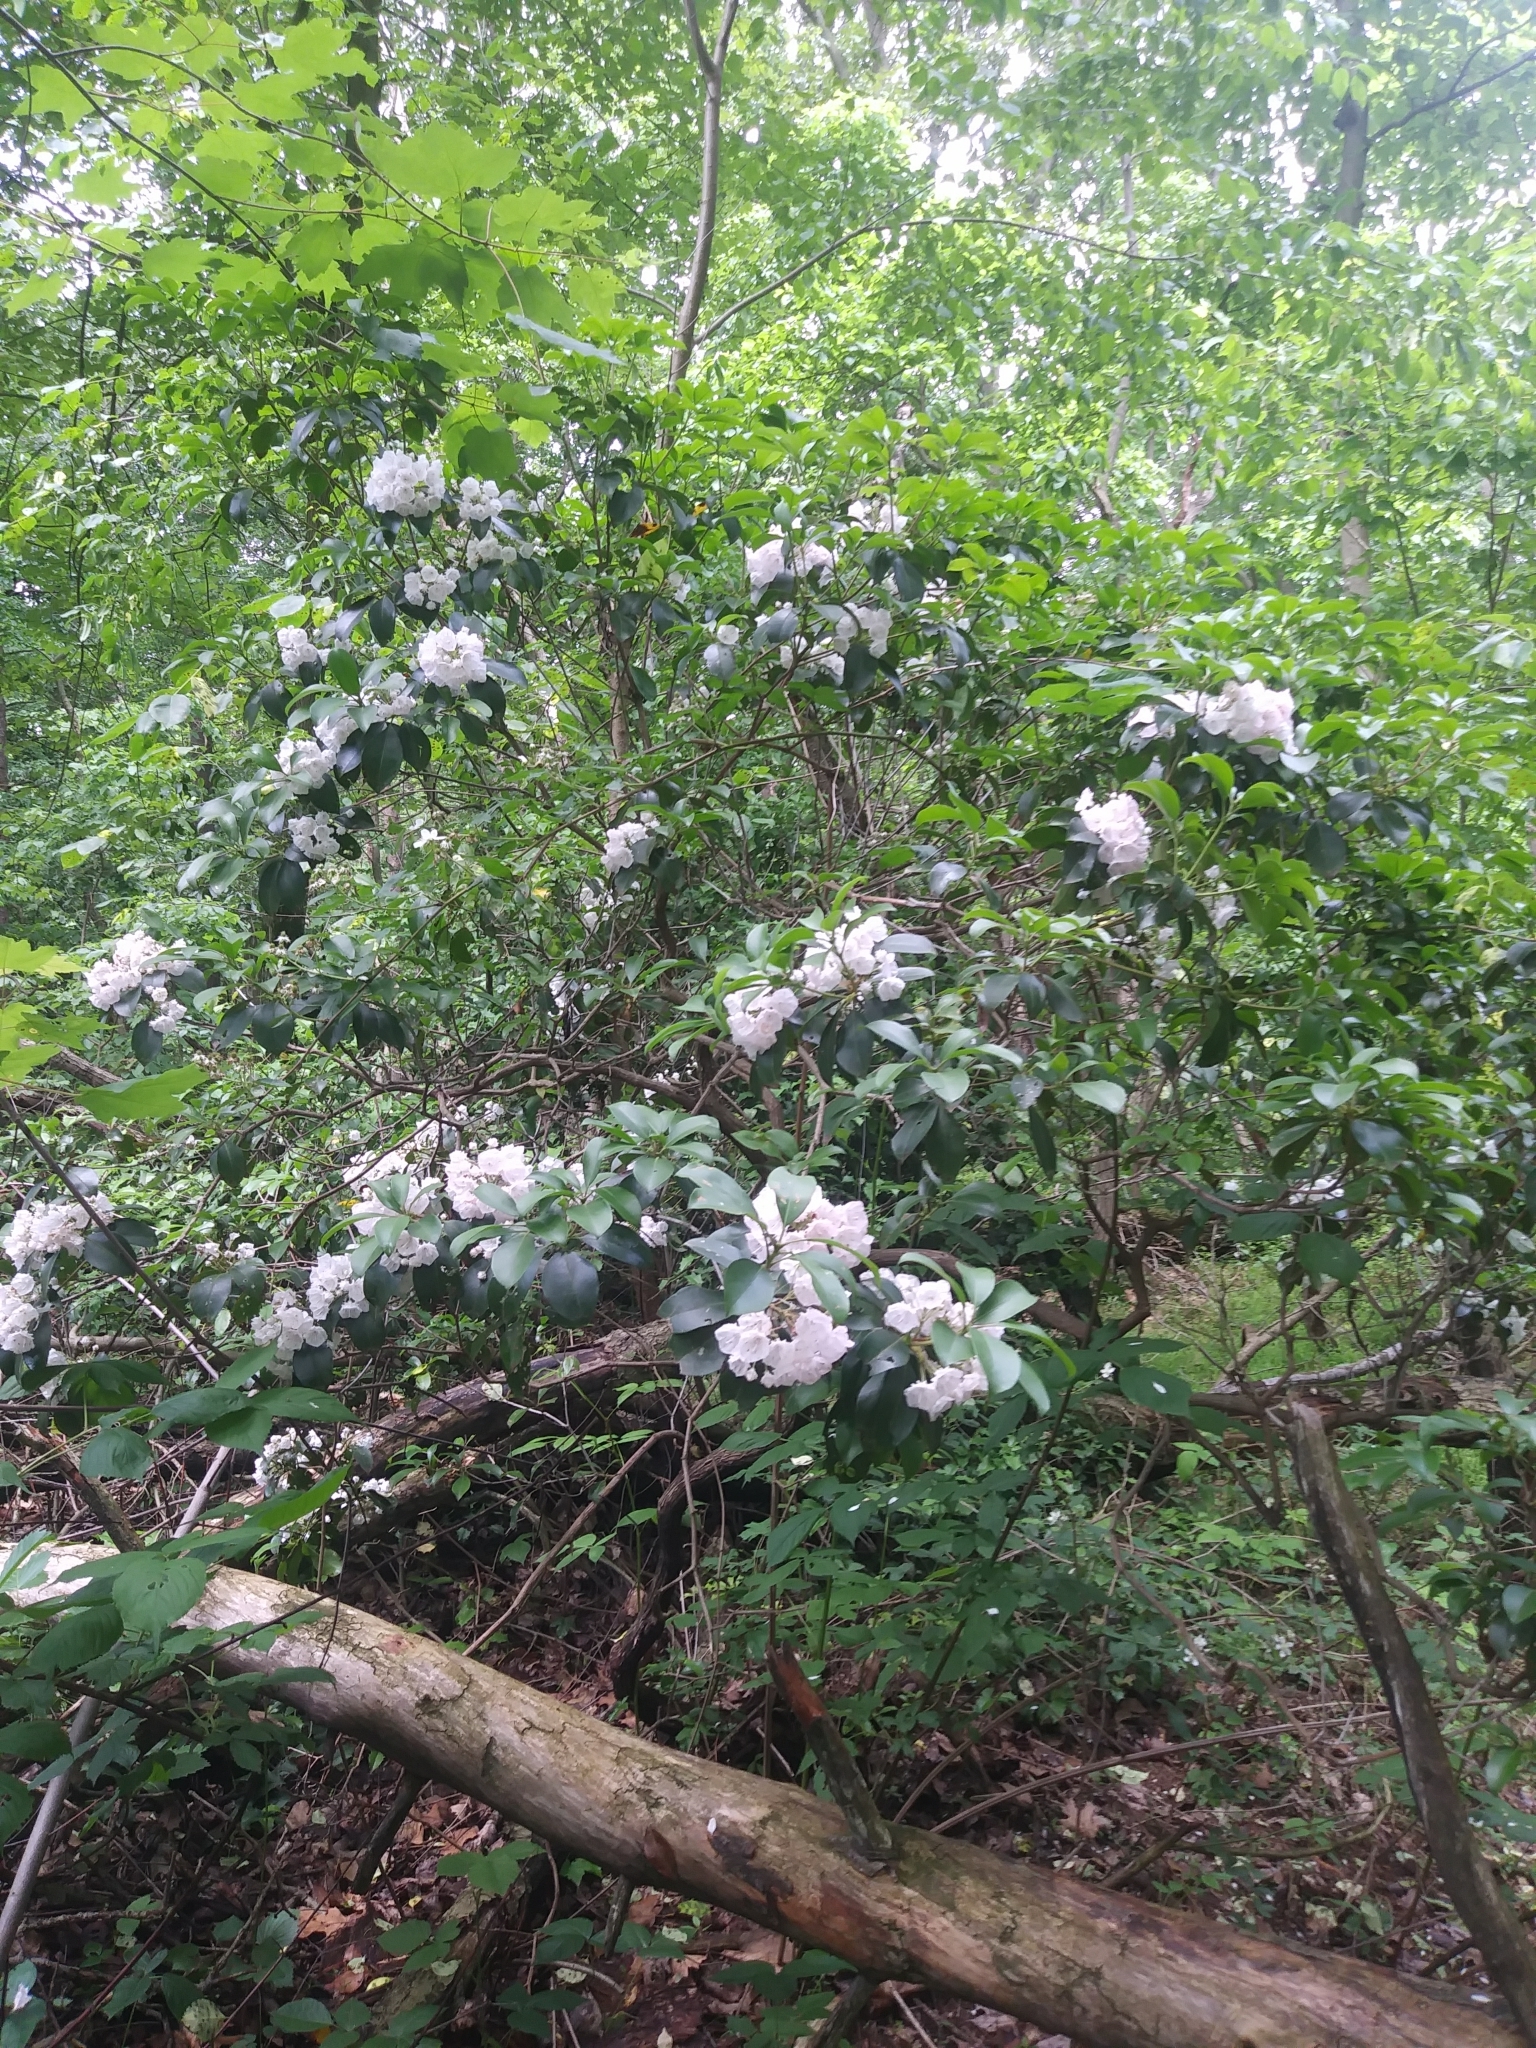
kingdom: Plantae
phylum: Tracheophyta
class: Magnoliopsida
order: Ericales
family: Ericaceae
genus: Kalmia
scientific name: Kalmia latifolia
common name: Mountain-laurel
